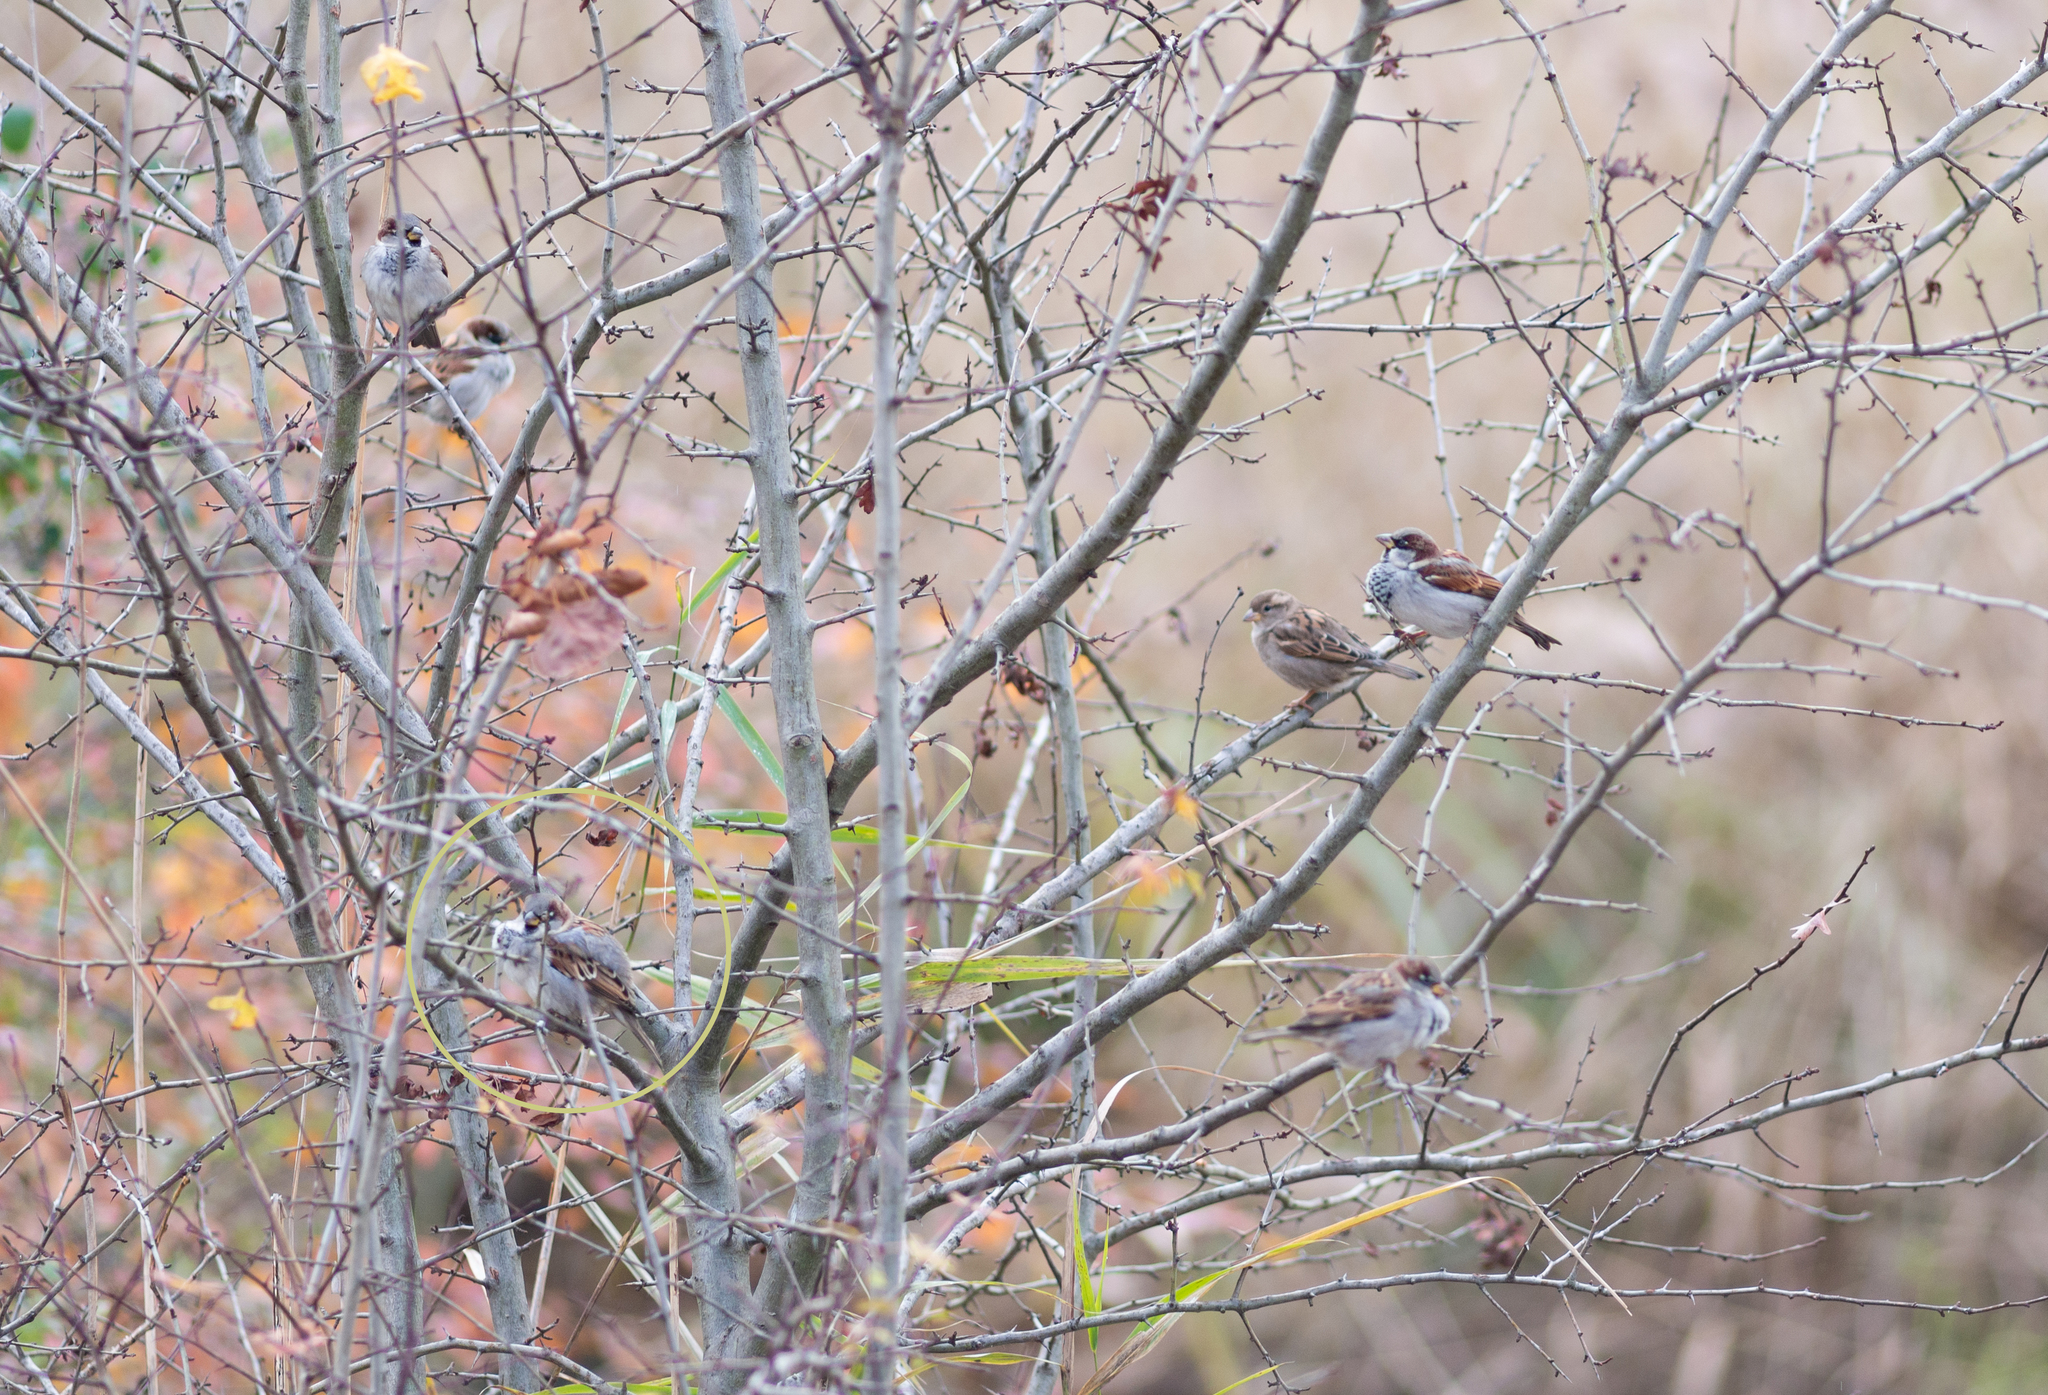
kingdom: Animalia
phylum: Chordata
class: Aves
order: Passeriformes
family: Passeridae
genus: Passer
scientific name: Passer domesticus
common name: House sparrow
